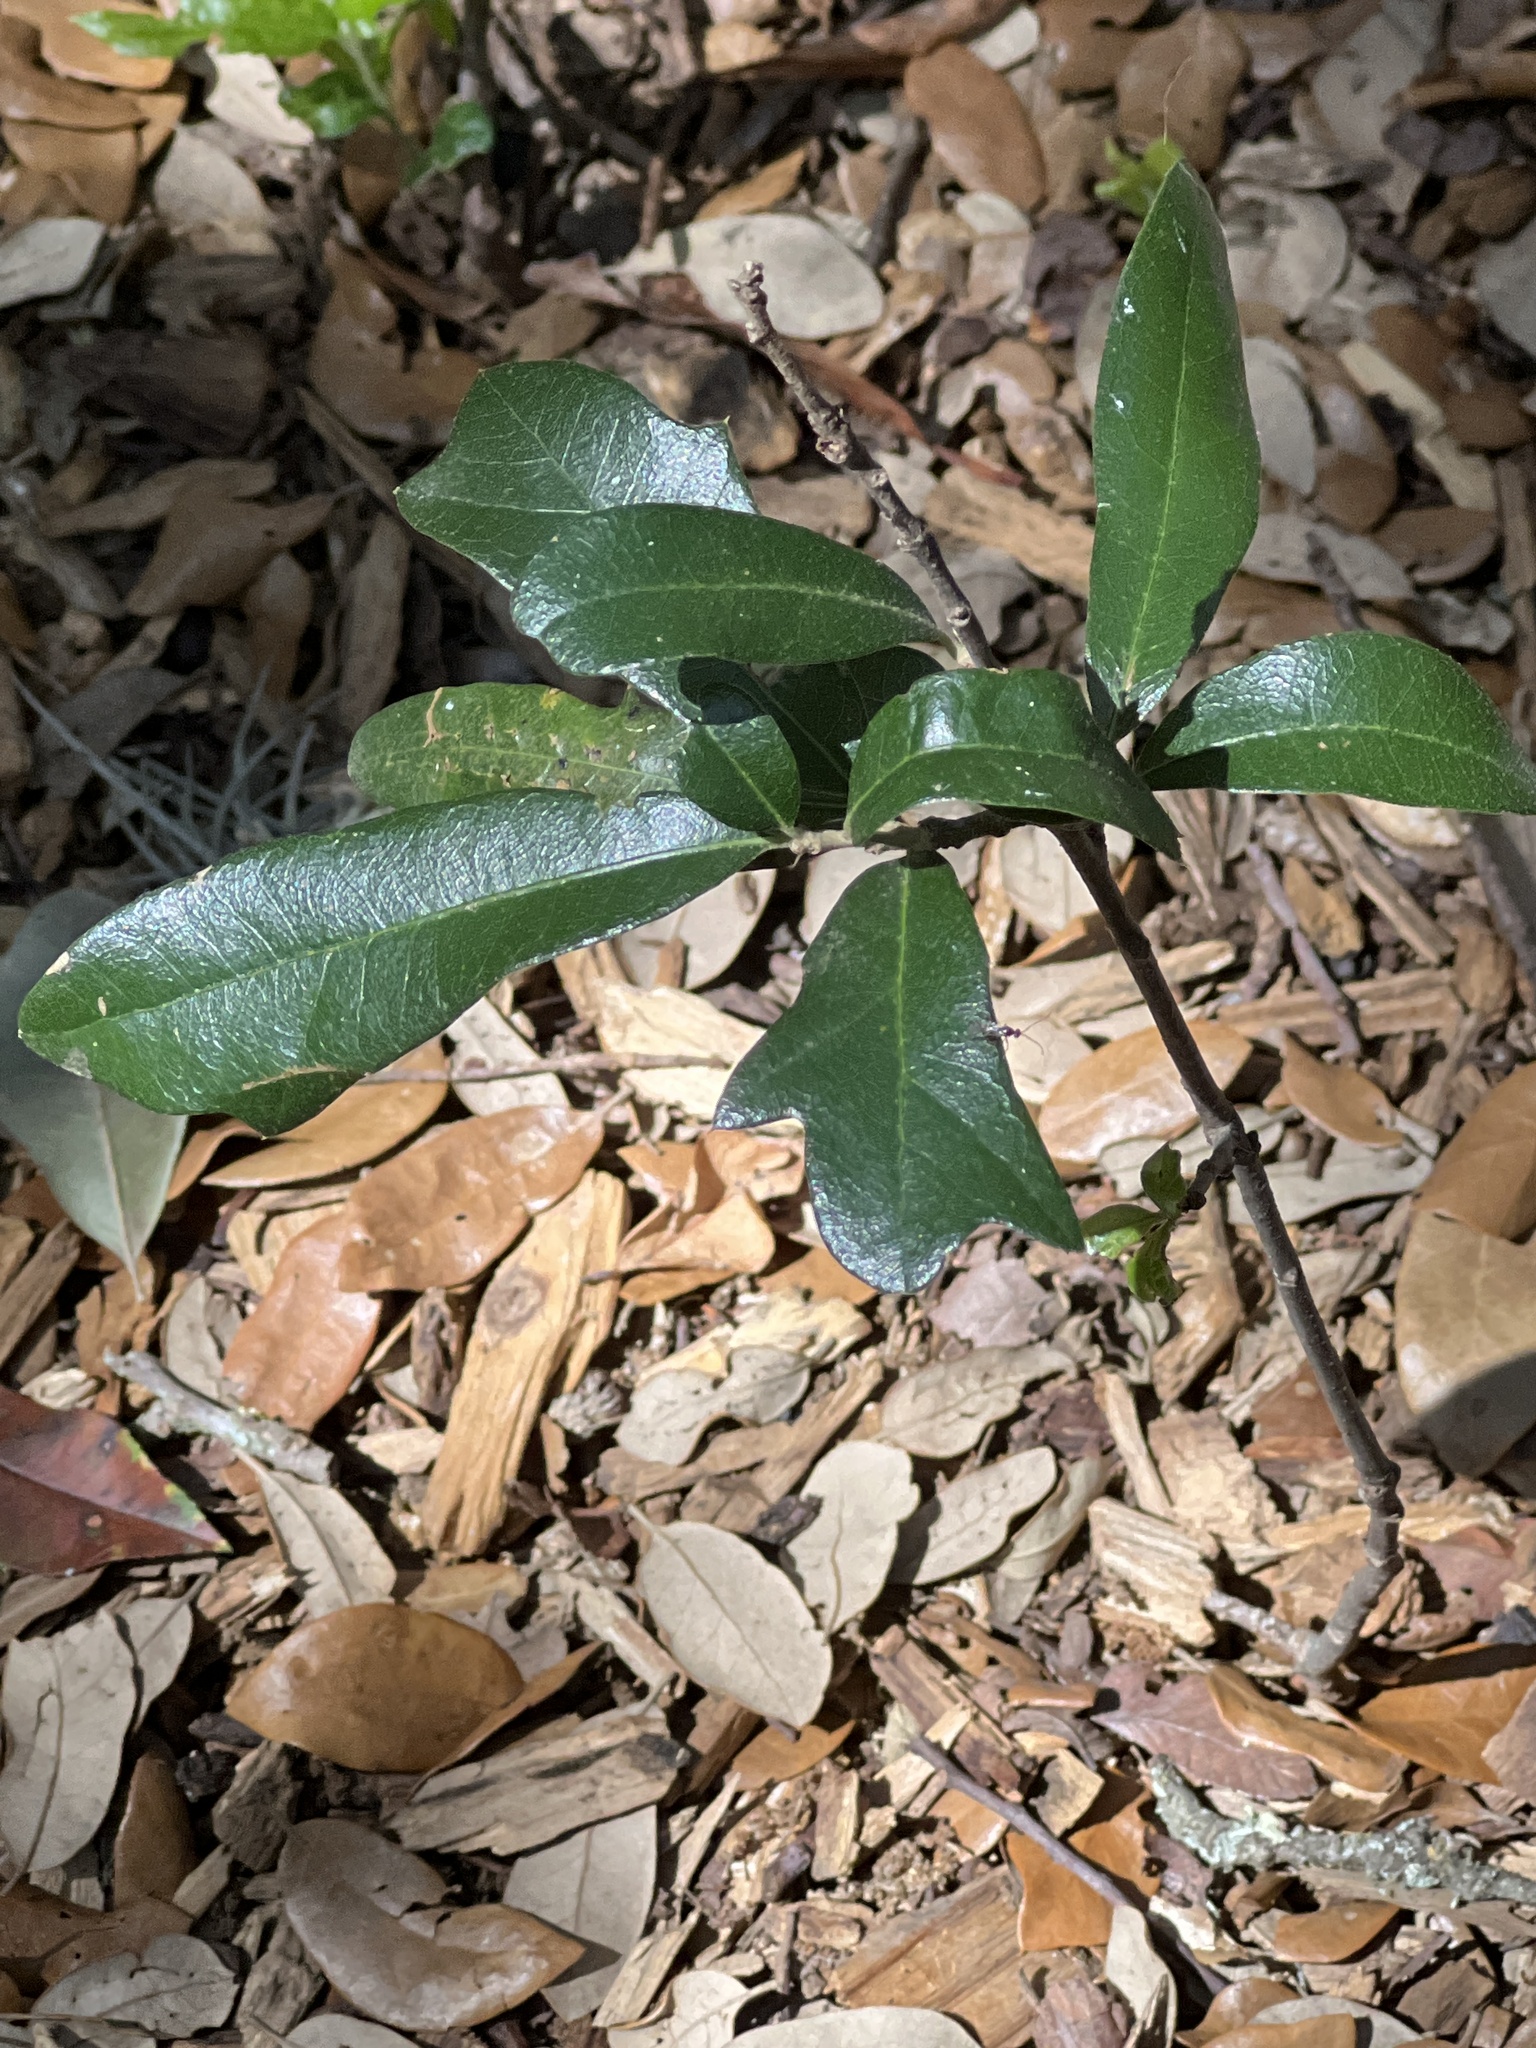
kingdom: Plantae
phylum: Tracheophyta
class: Magnoliopsida
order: Fagales
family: Fagaceae
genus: Quercus
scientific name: Quercus fusiformis
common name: Texas live oak
